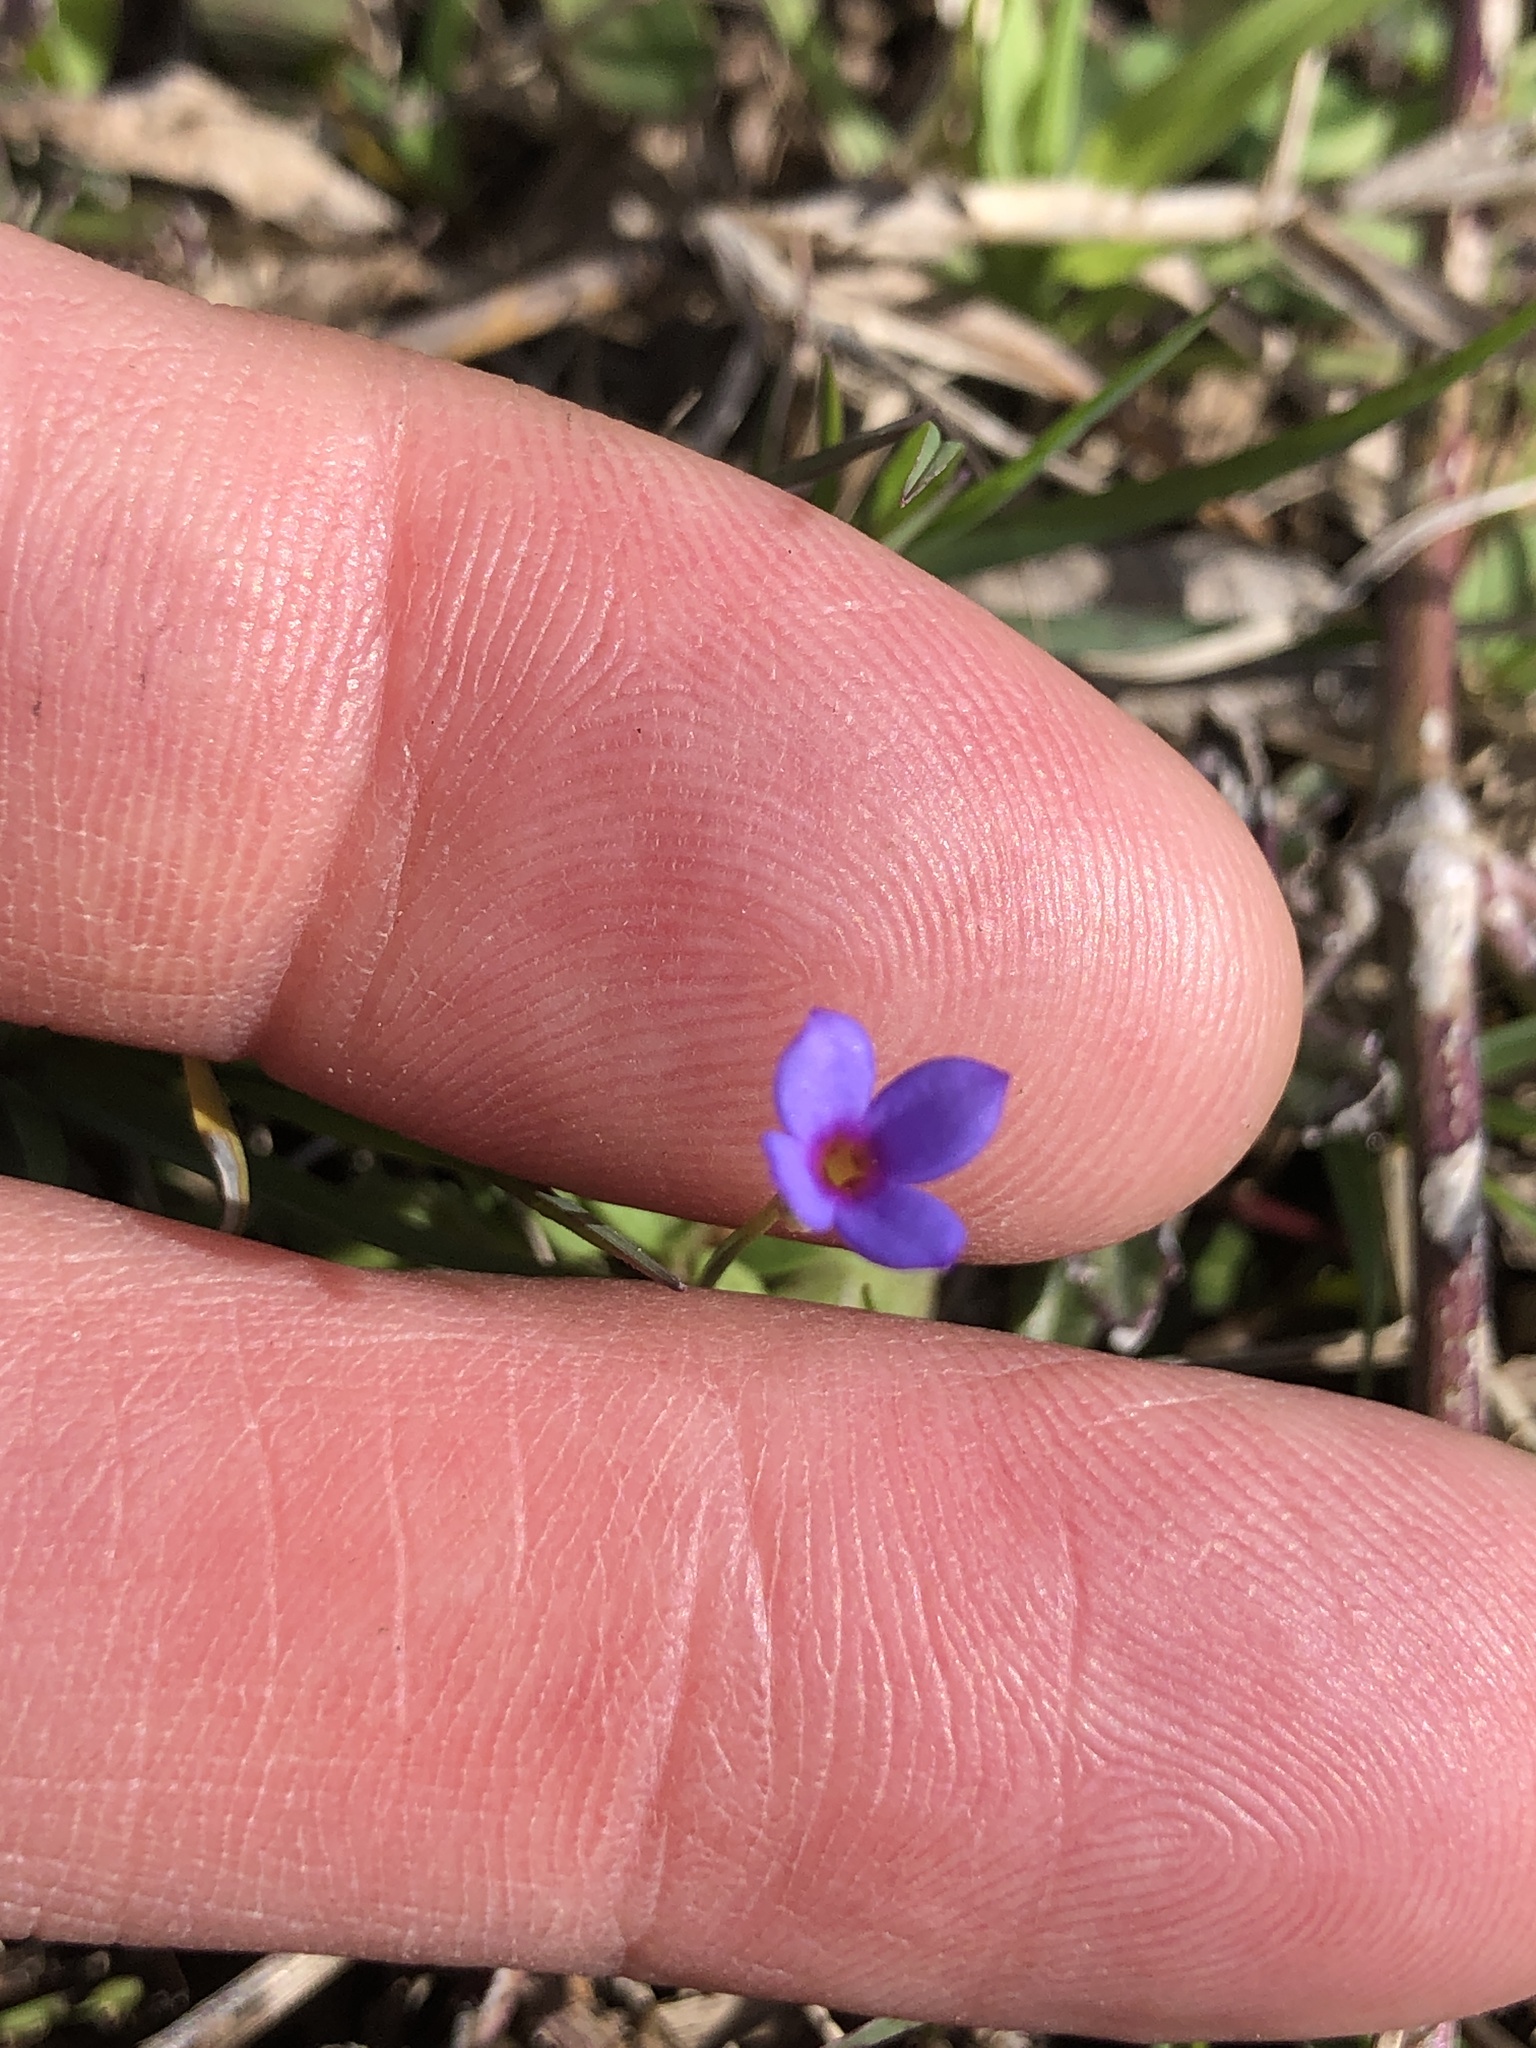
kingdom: Plantae
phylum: Tracheophyta
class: Magnoliopsida
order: Gentianales
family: Rubiaceae
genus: Houstonia
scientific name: Houstonia pusilla
